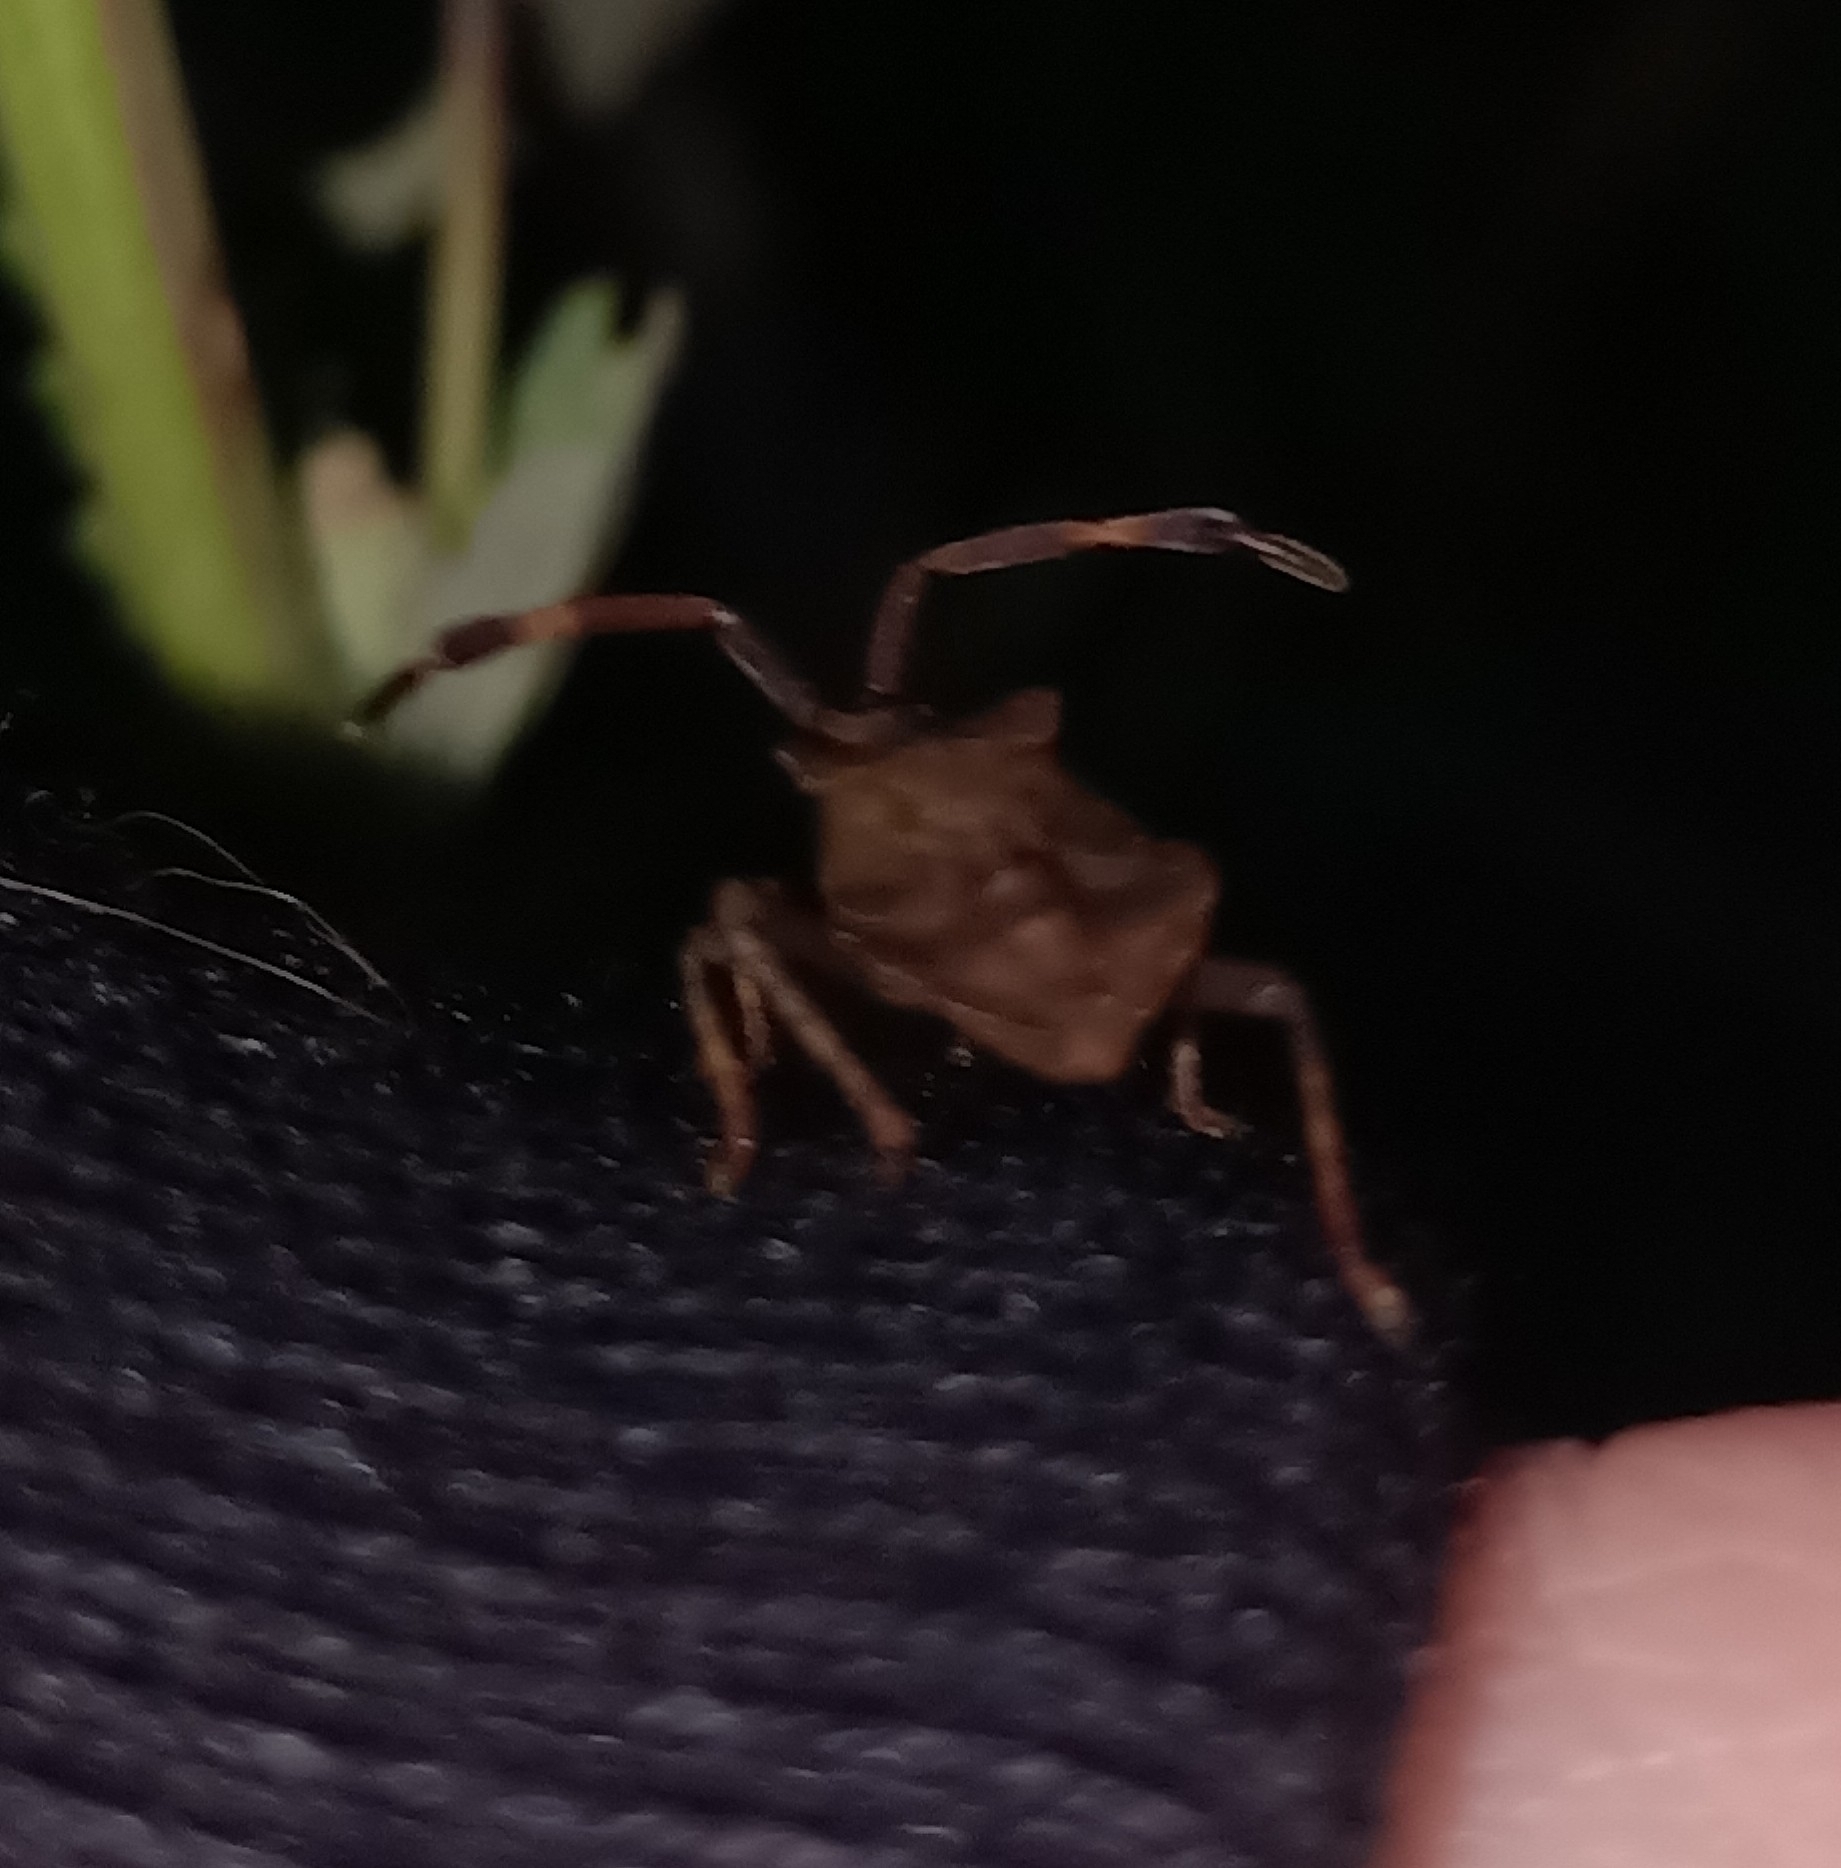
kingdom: Animalia
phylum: Arthropoda
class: Insecta
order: Hemiptera
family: Coreidae
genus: Coreus
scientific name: Coreus marginatus
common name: Dock bug
